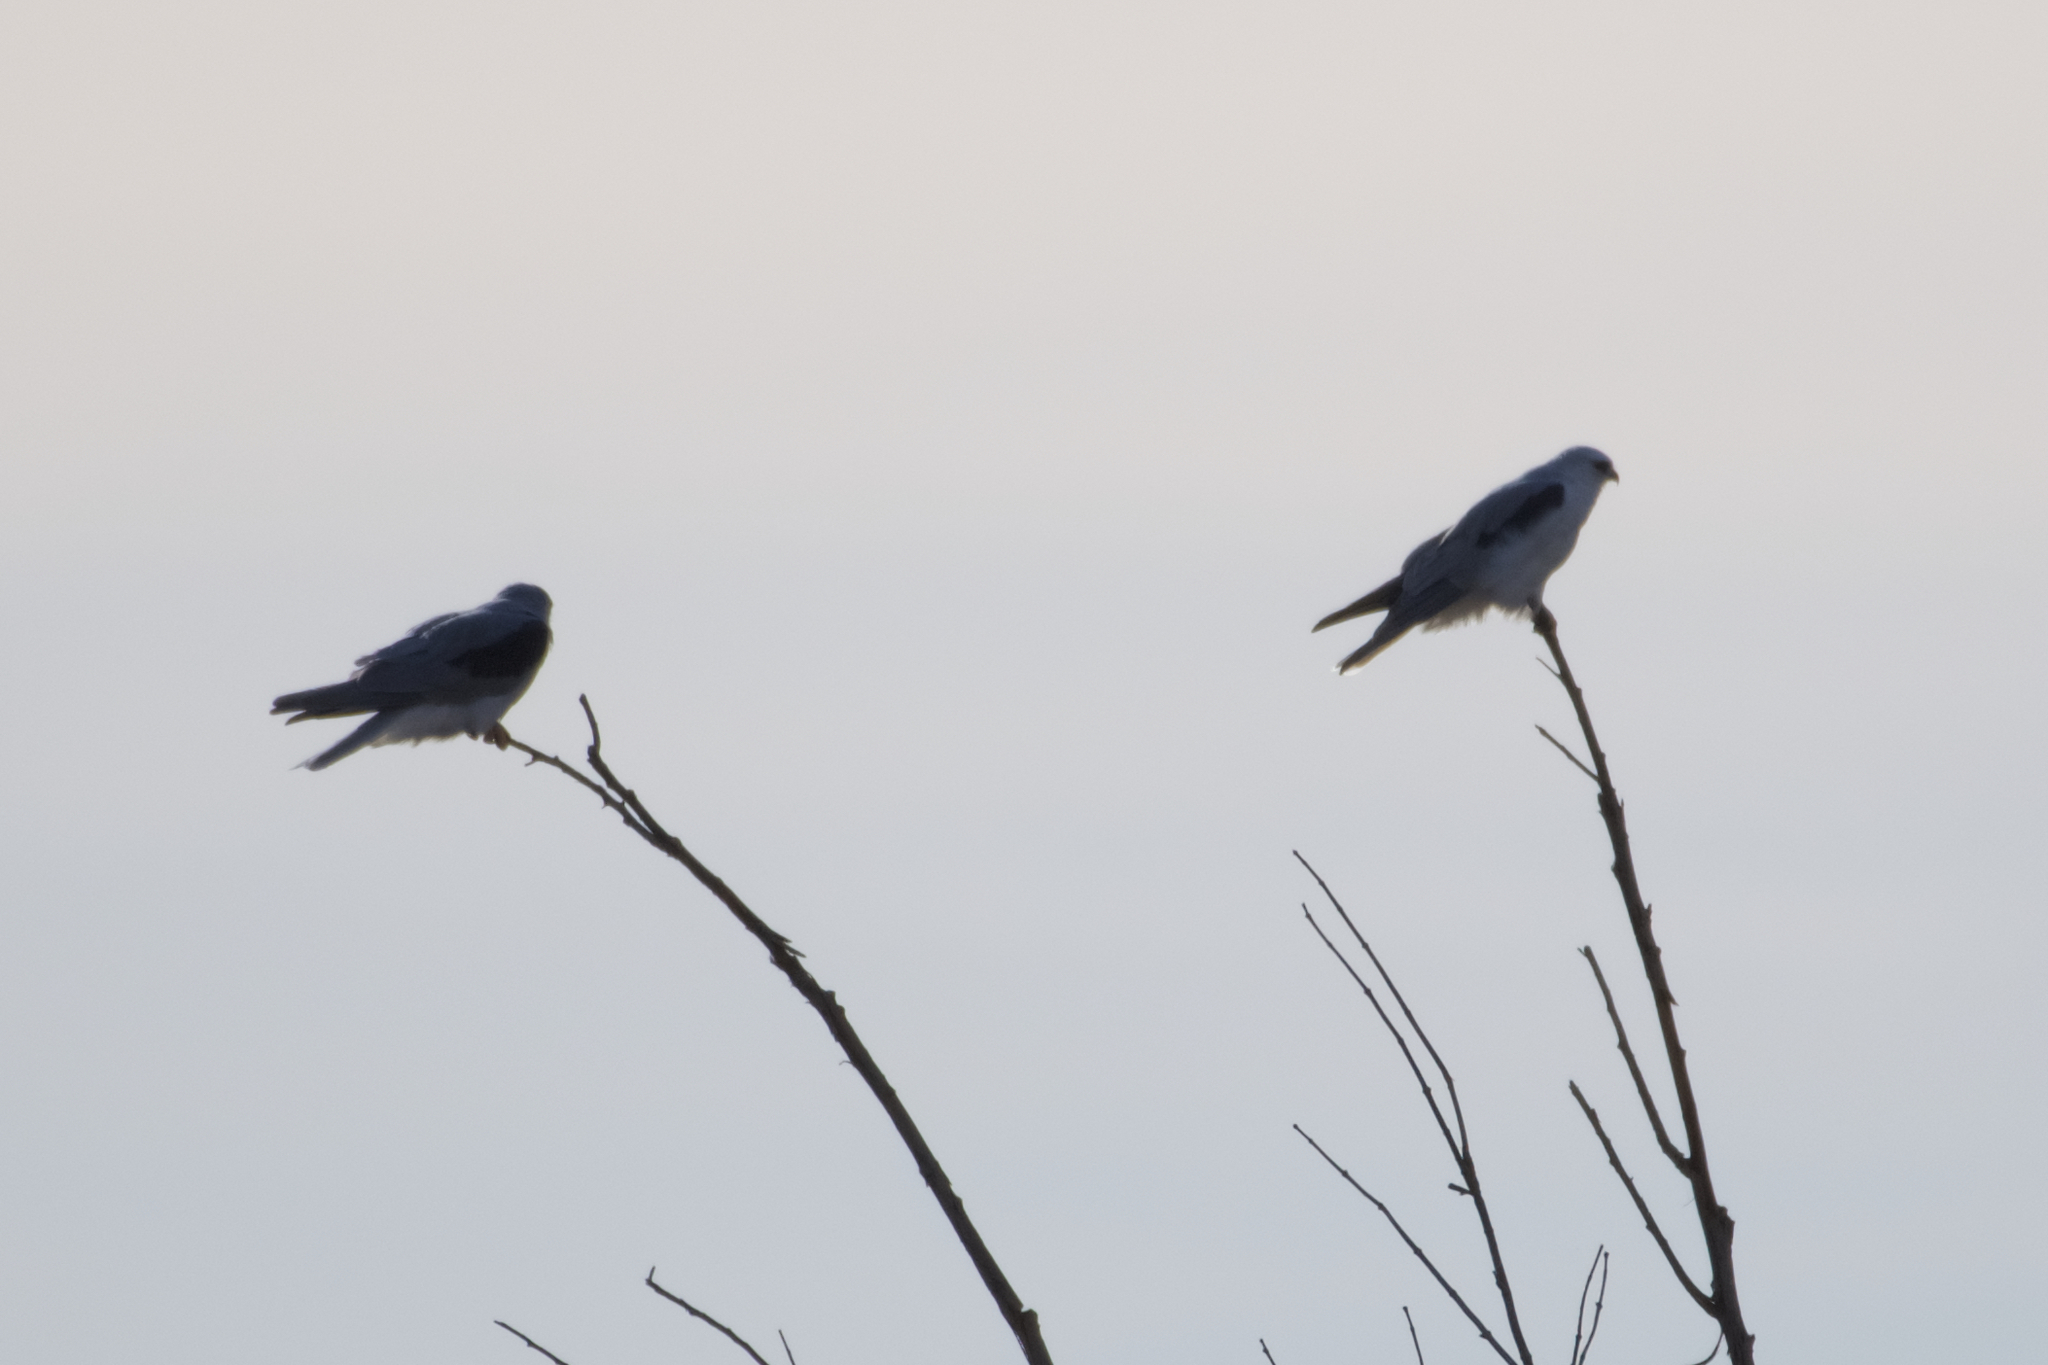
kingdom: Animalia
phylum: Chordata
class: Aves
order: Accipitriformes
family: Accipitridae
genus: Elanus
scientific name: Elanus leucurus
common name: White-tailed kite
